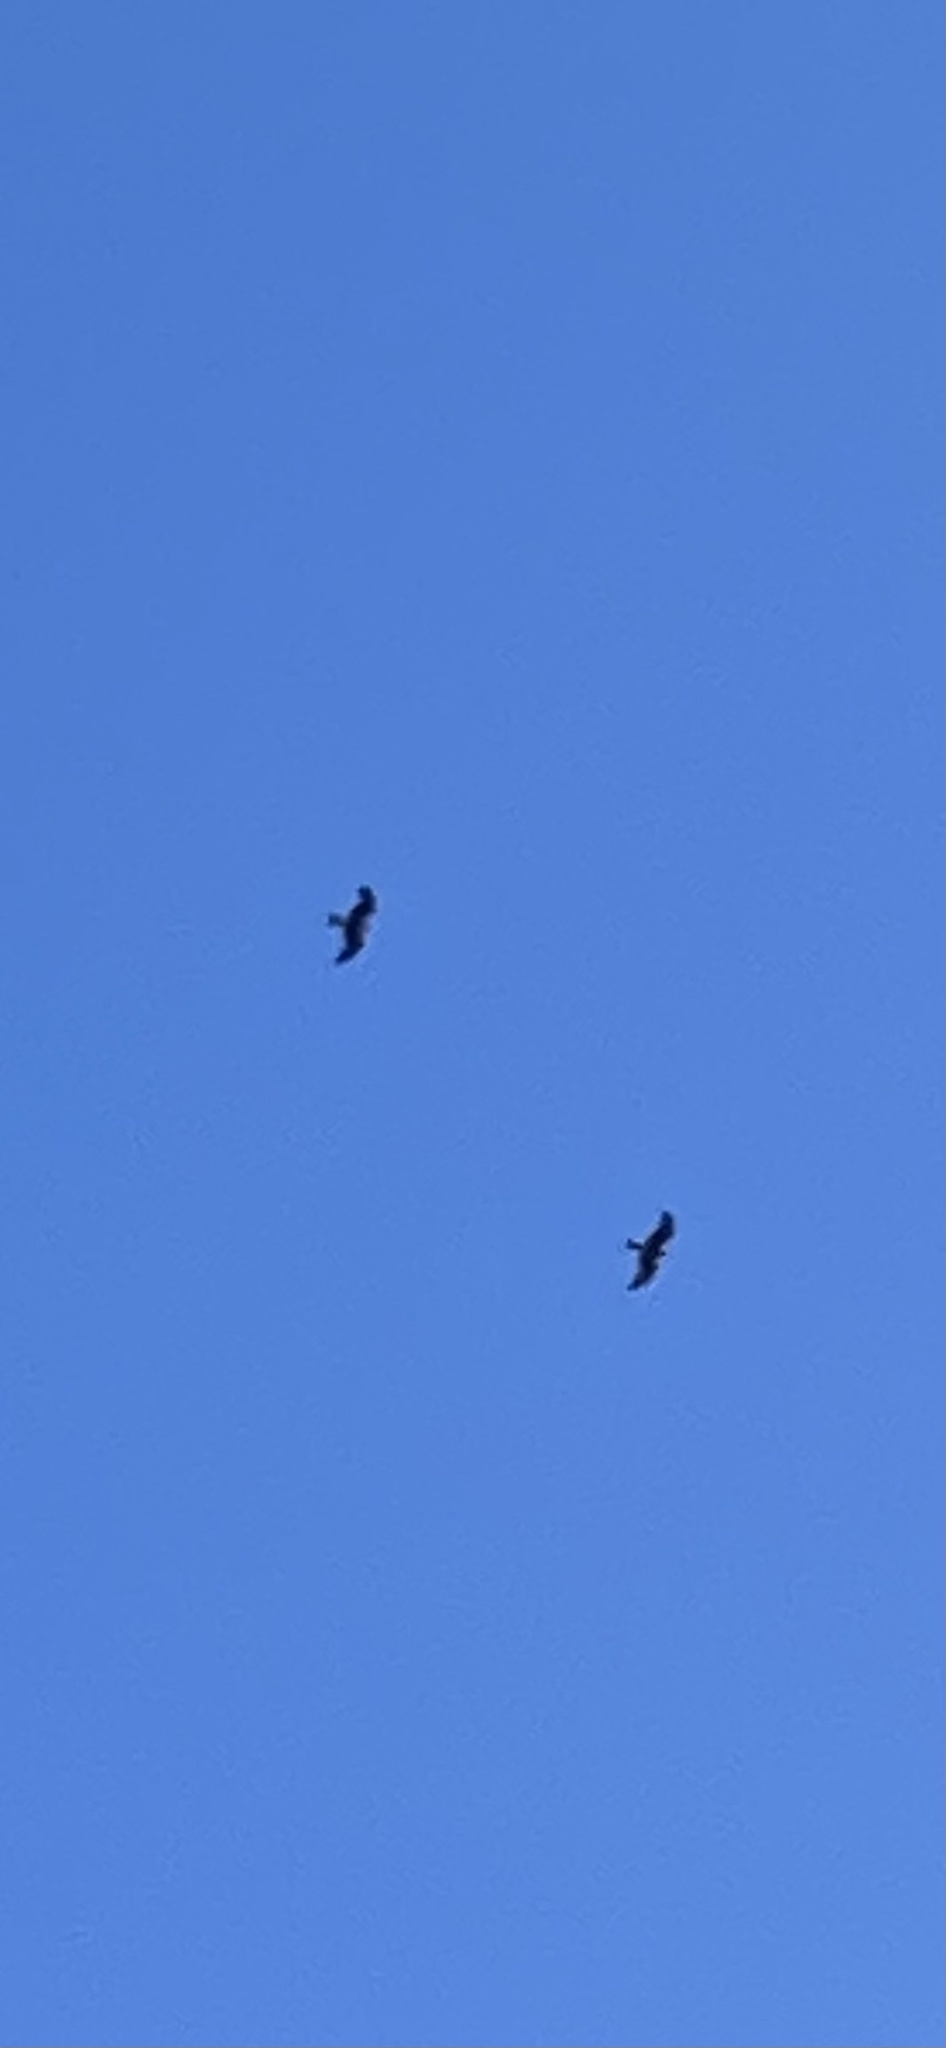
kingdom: Animalia
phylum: Chordata
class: Aves
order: Accipitriformes
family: Accipitridae
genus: Milvus
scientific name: Milvus migrans
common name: Black kite
